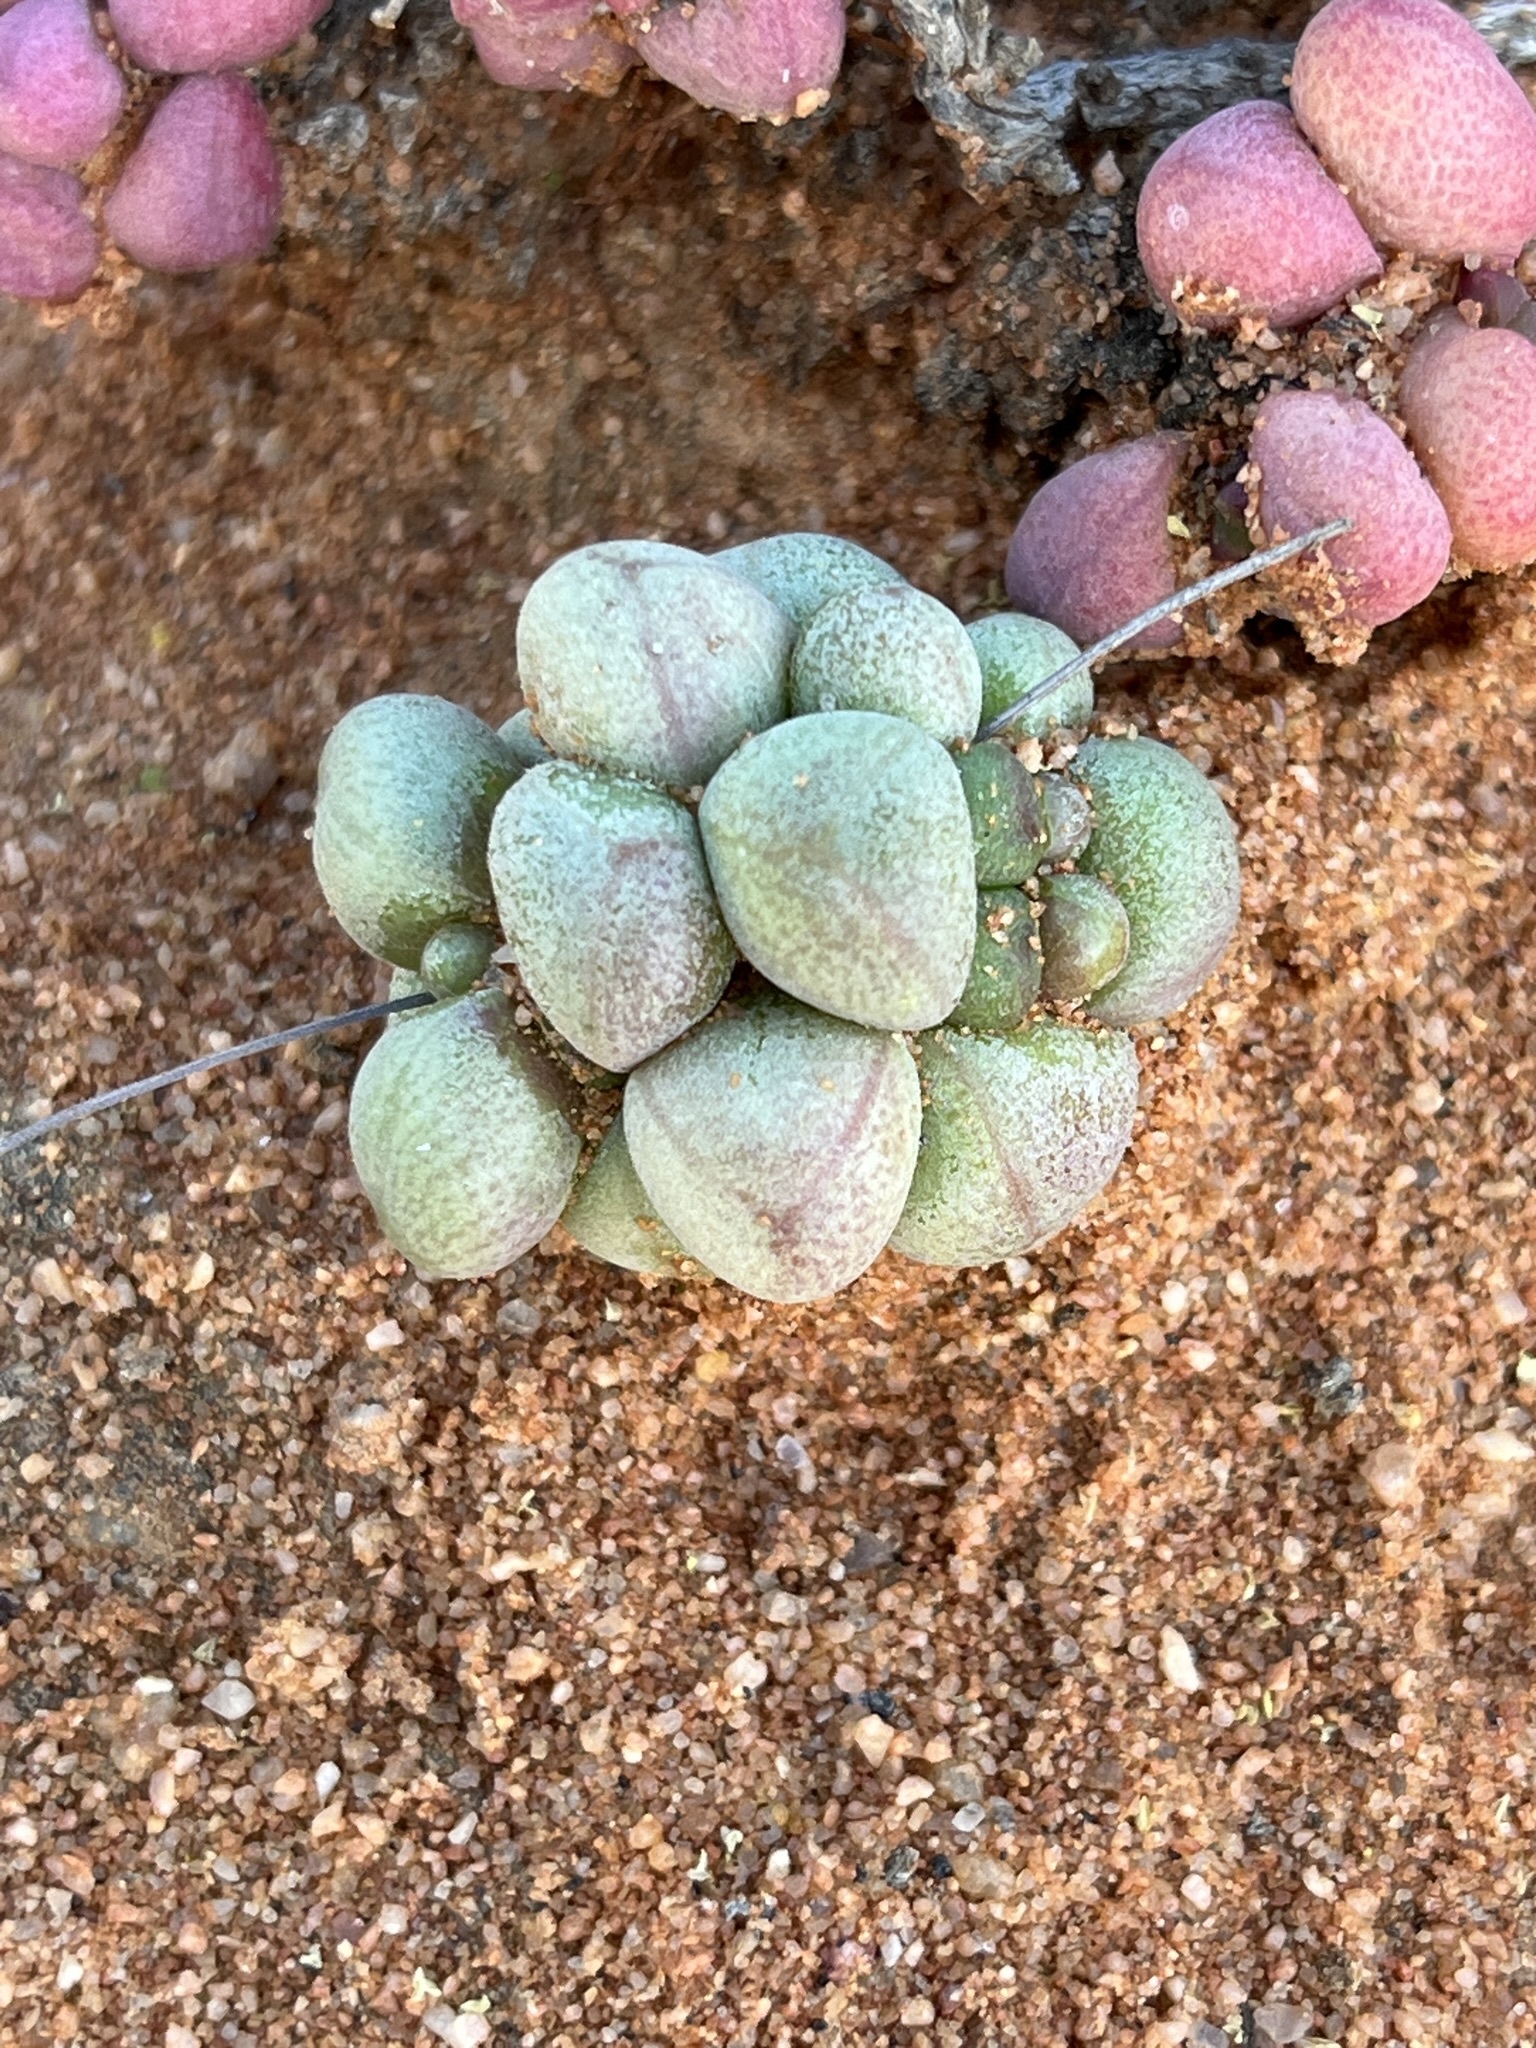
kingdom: Plantae
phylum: Tracheophyta
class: Magnoliopsida
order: Saxifragales
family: Crassulaceae
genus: Crassula
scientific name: Crassula elegans
